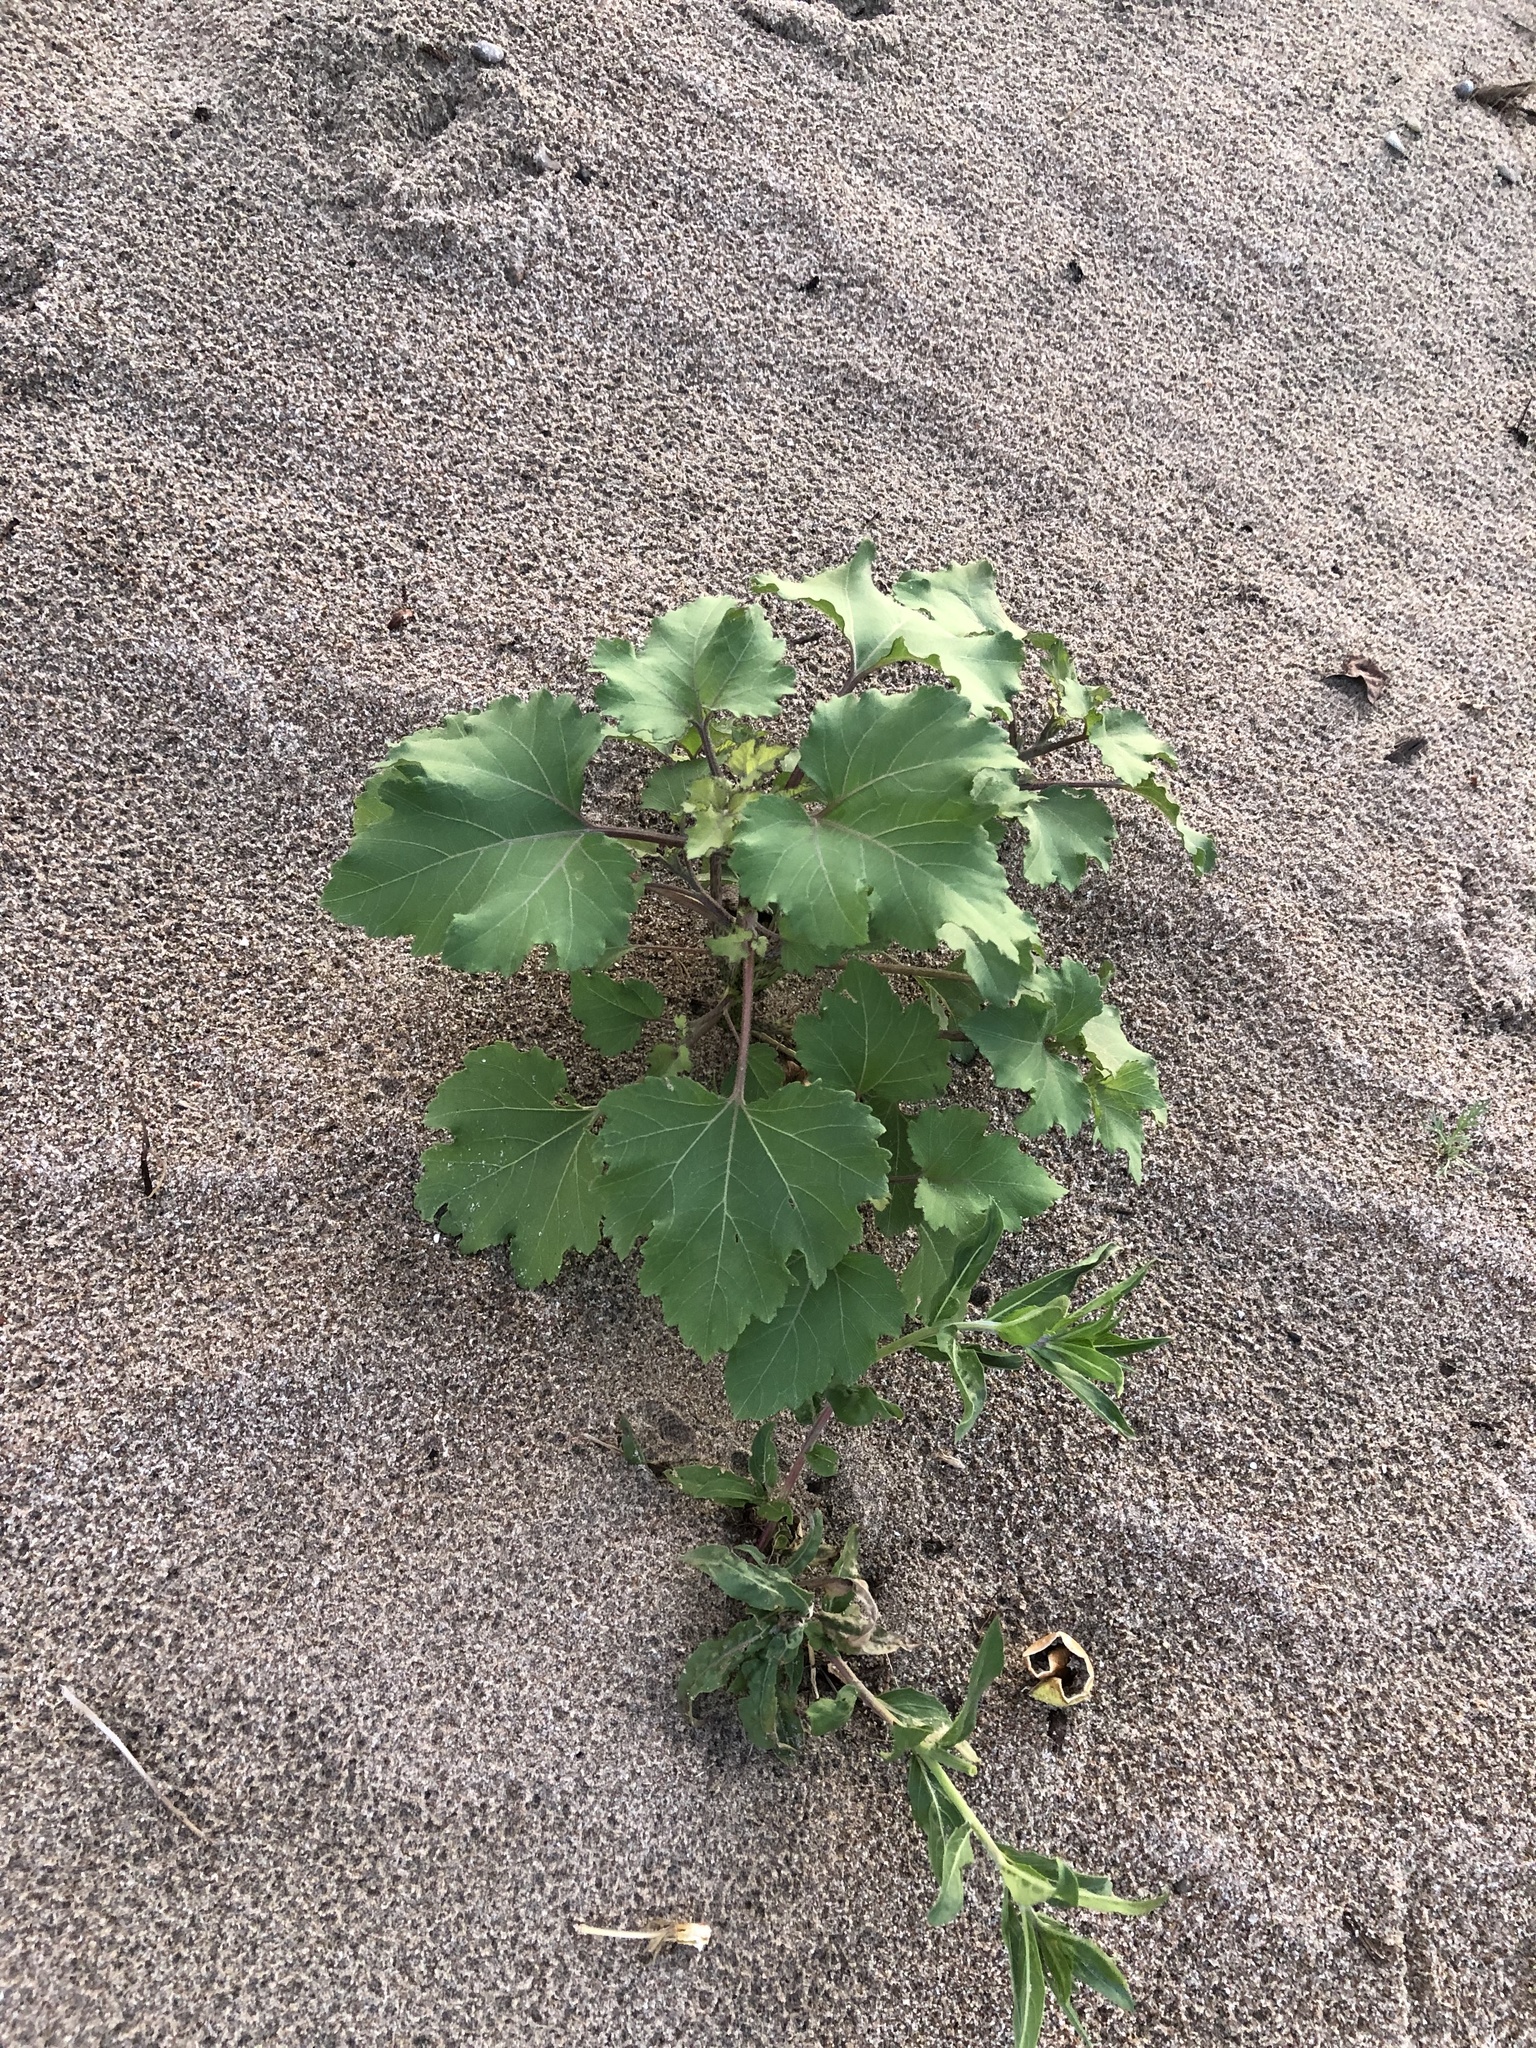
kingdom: Plantae
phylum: Tracheophyta
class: Magnoliopsida
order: Asterales
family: Asteraceae
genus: Xanthium
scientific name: Xanthium strumarium
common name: Rough cocklebur
